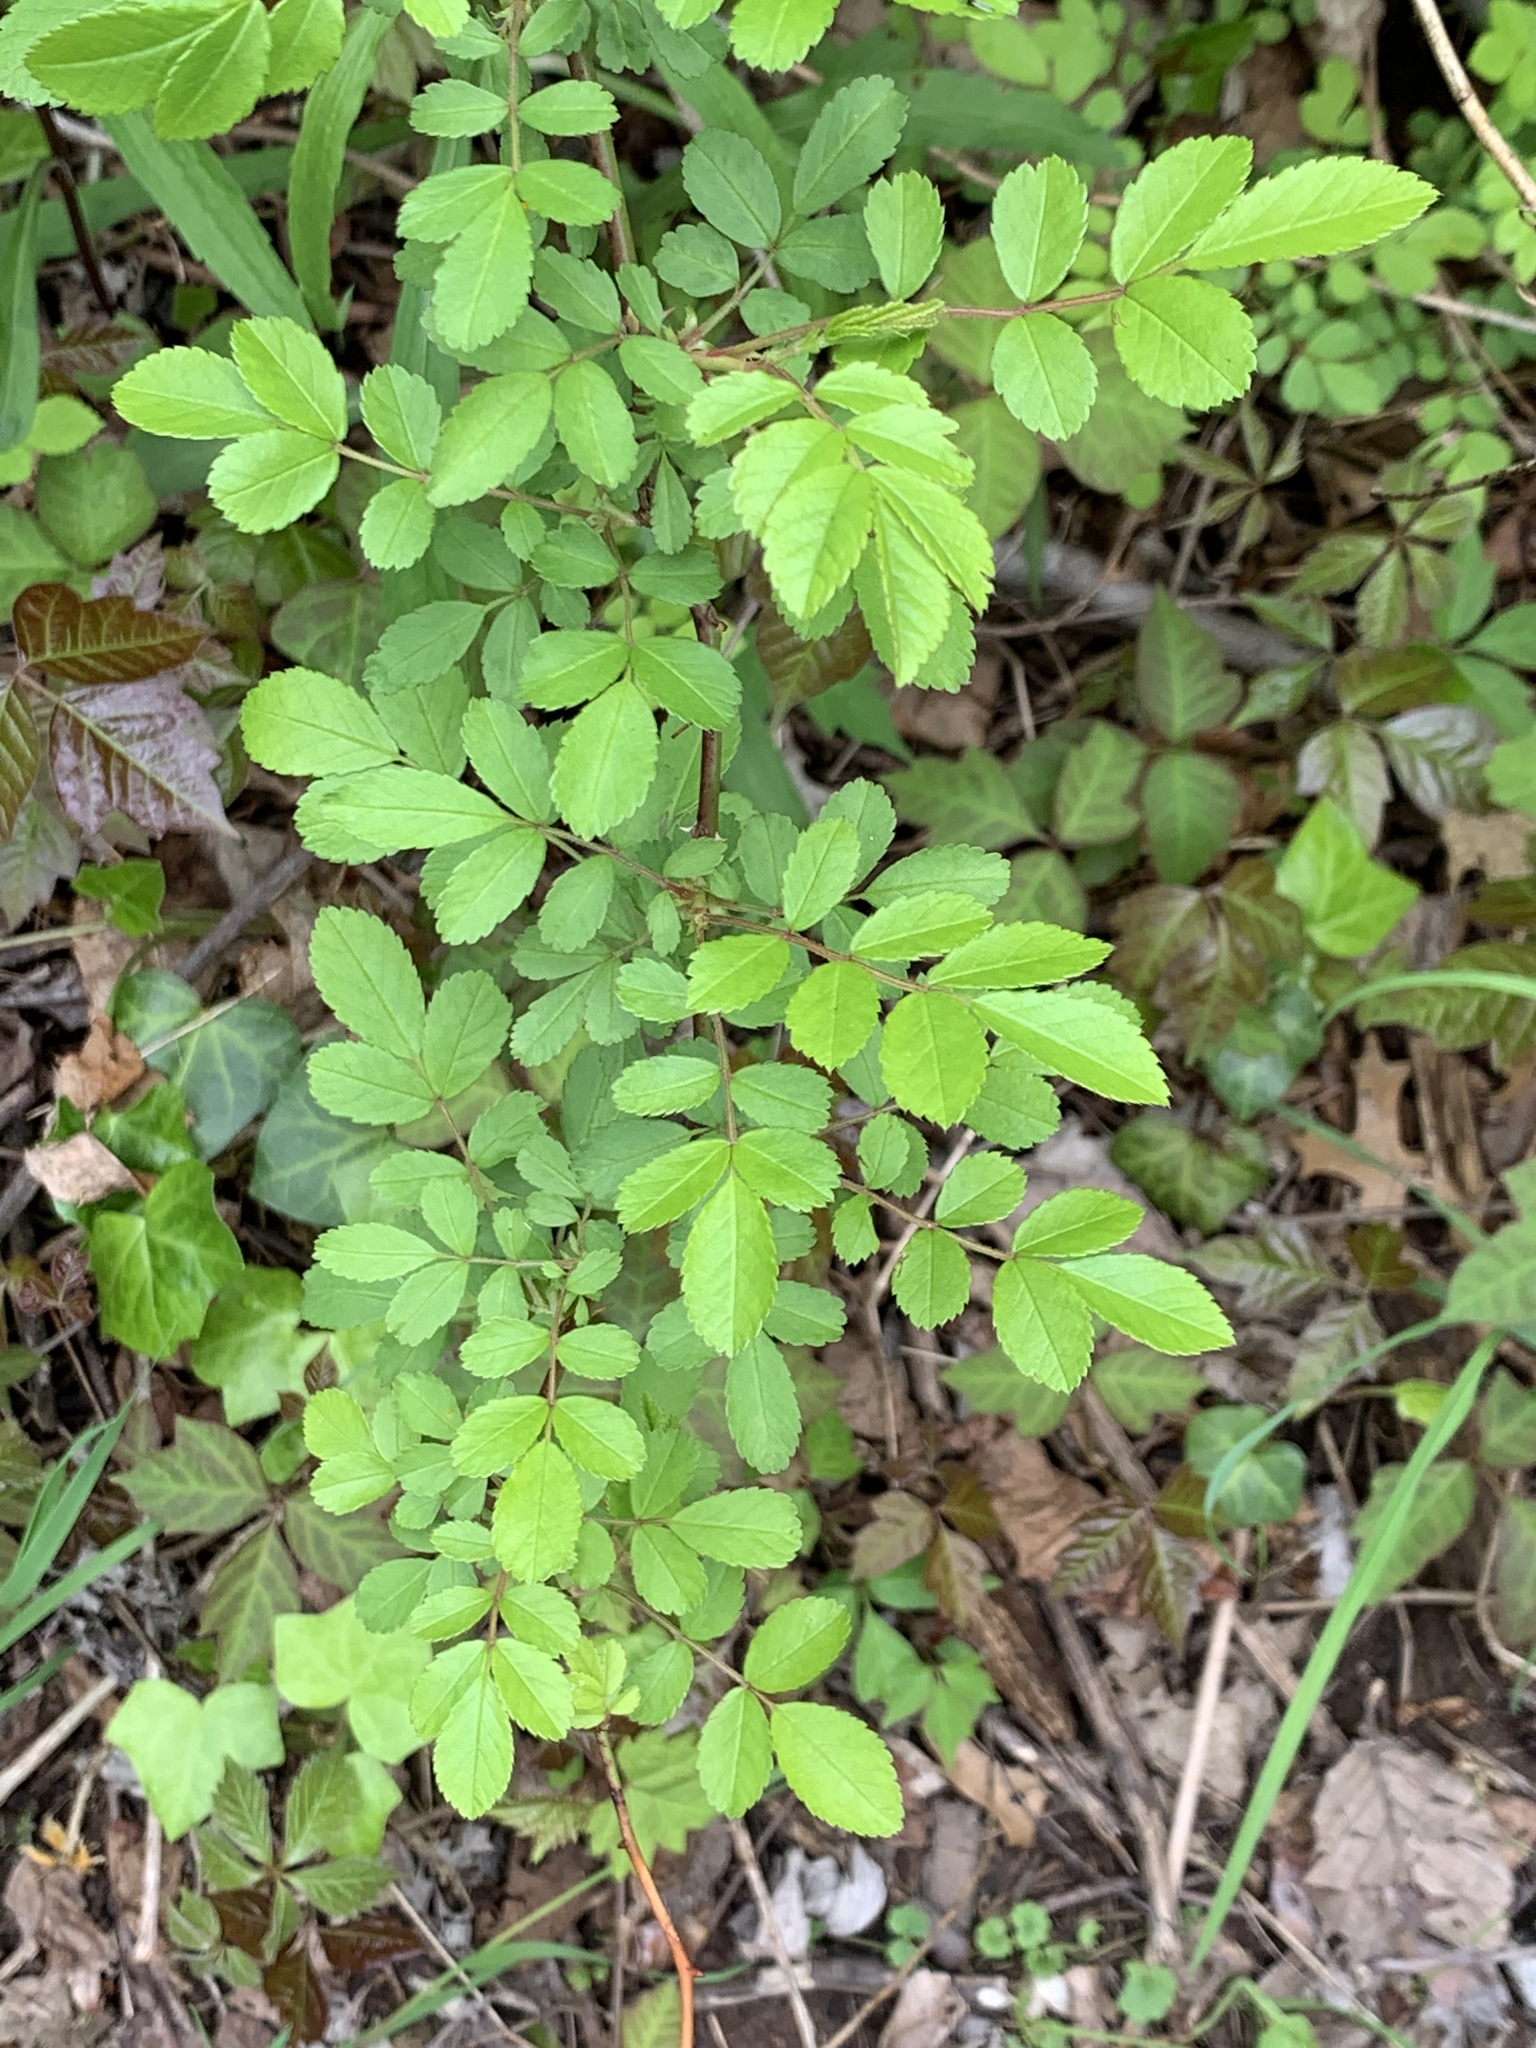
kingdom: Plantae
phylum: Tracheophyta
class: Magnoliopsida
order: Rosales
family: Rosaceae
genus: Rosa
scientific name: Rosa multiflora
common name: Multiflora rose
